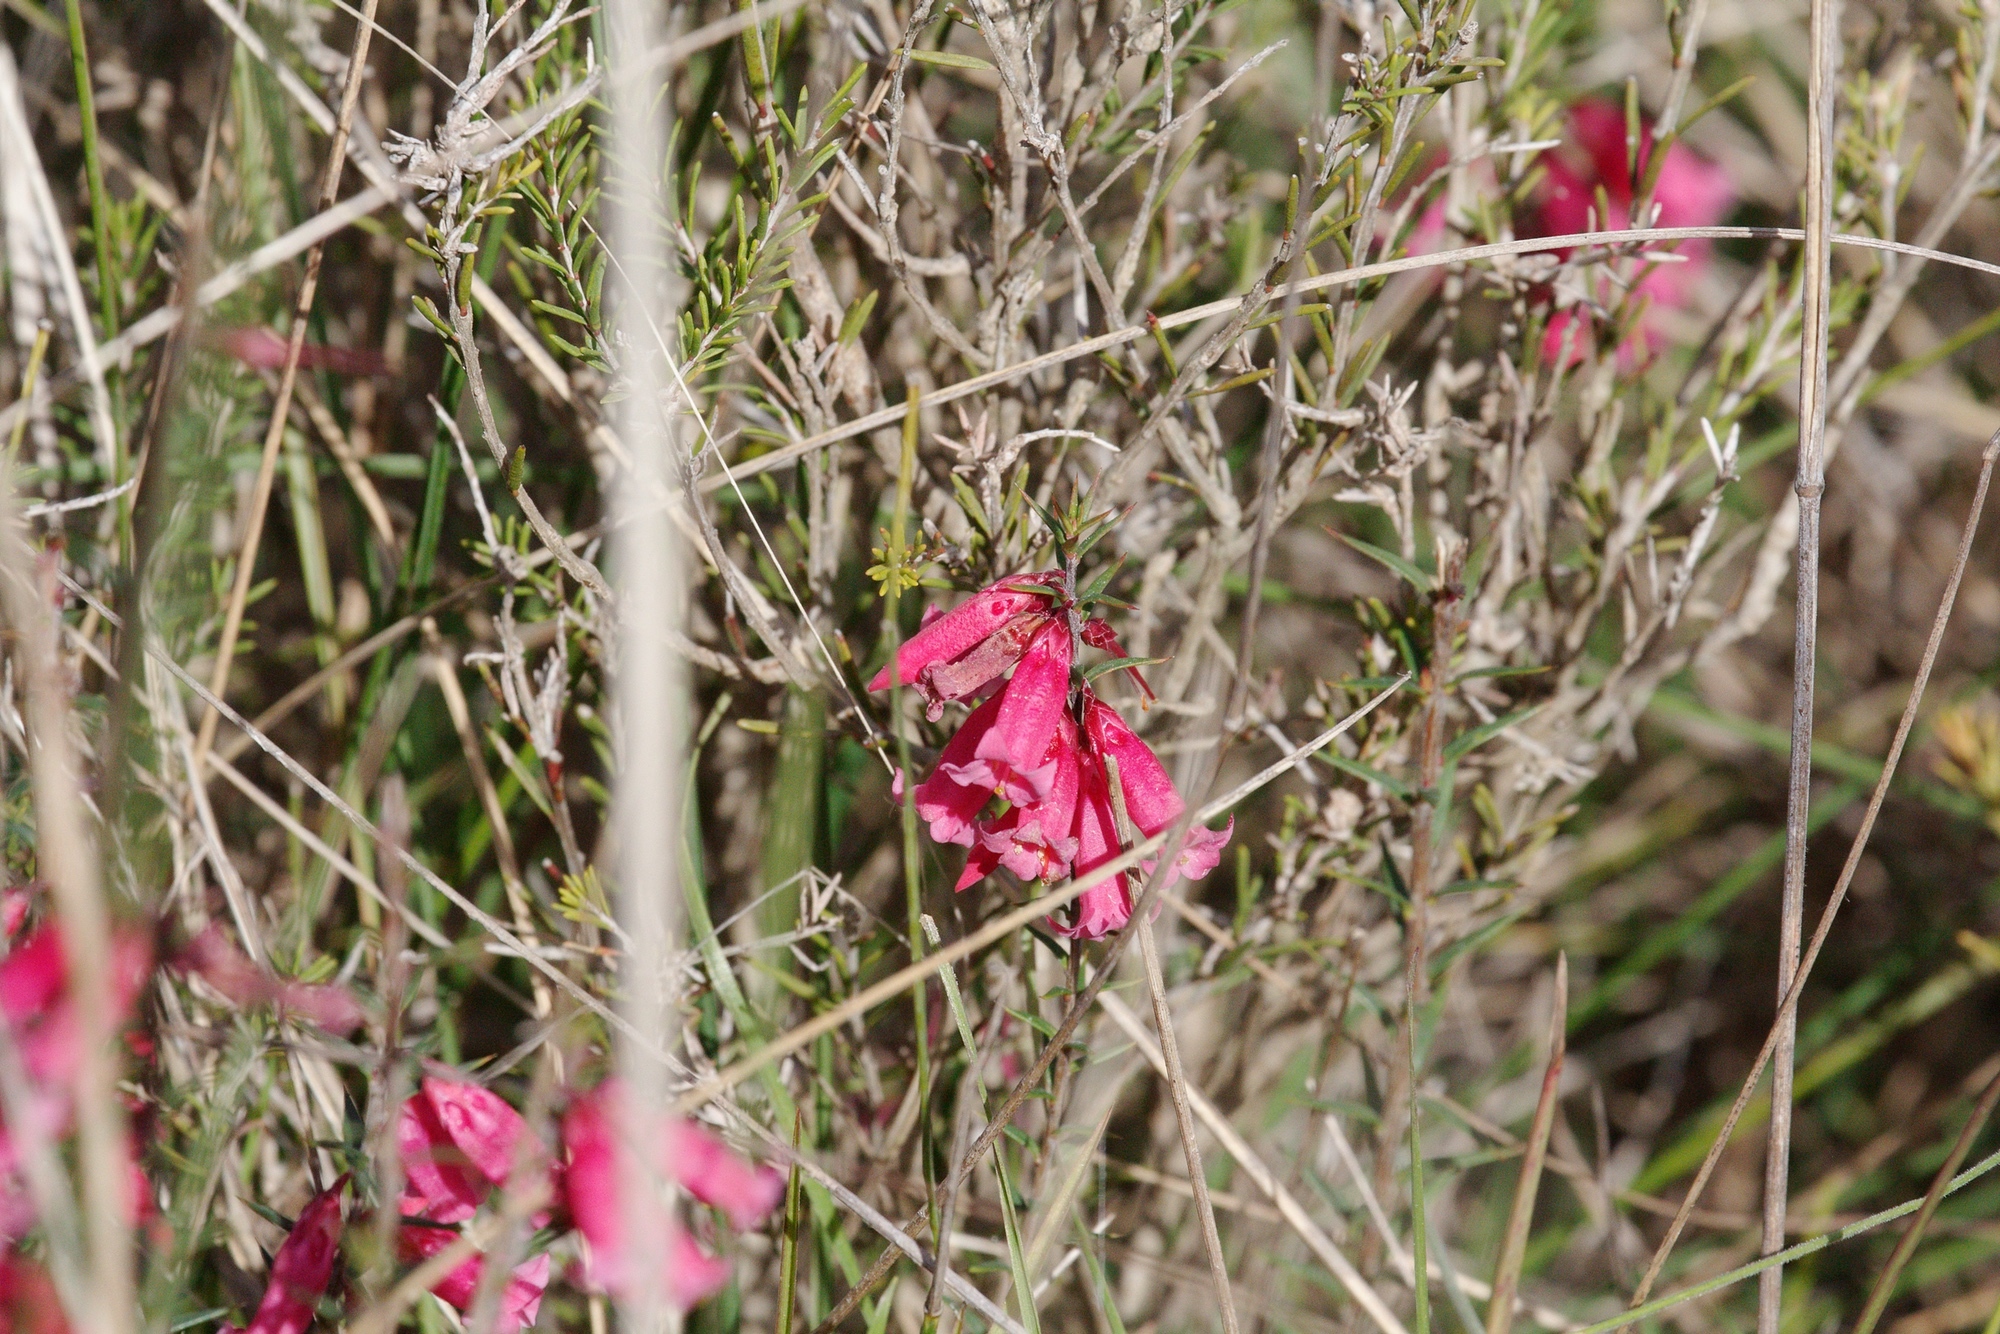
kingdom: Plantae
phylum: Tracheophyta
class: Magnoliopsida
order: Ericales
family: Ericaceae
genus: Epacris
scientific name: Epacris impressa
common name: Common-heath
